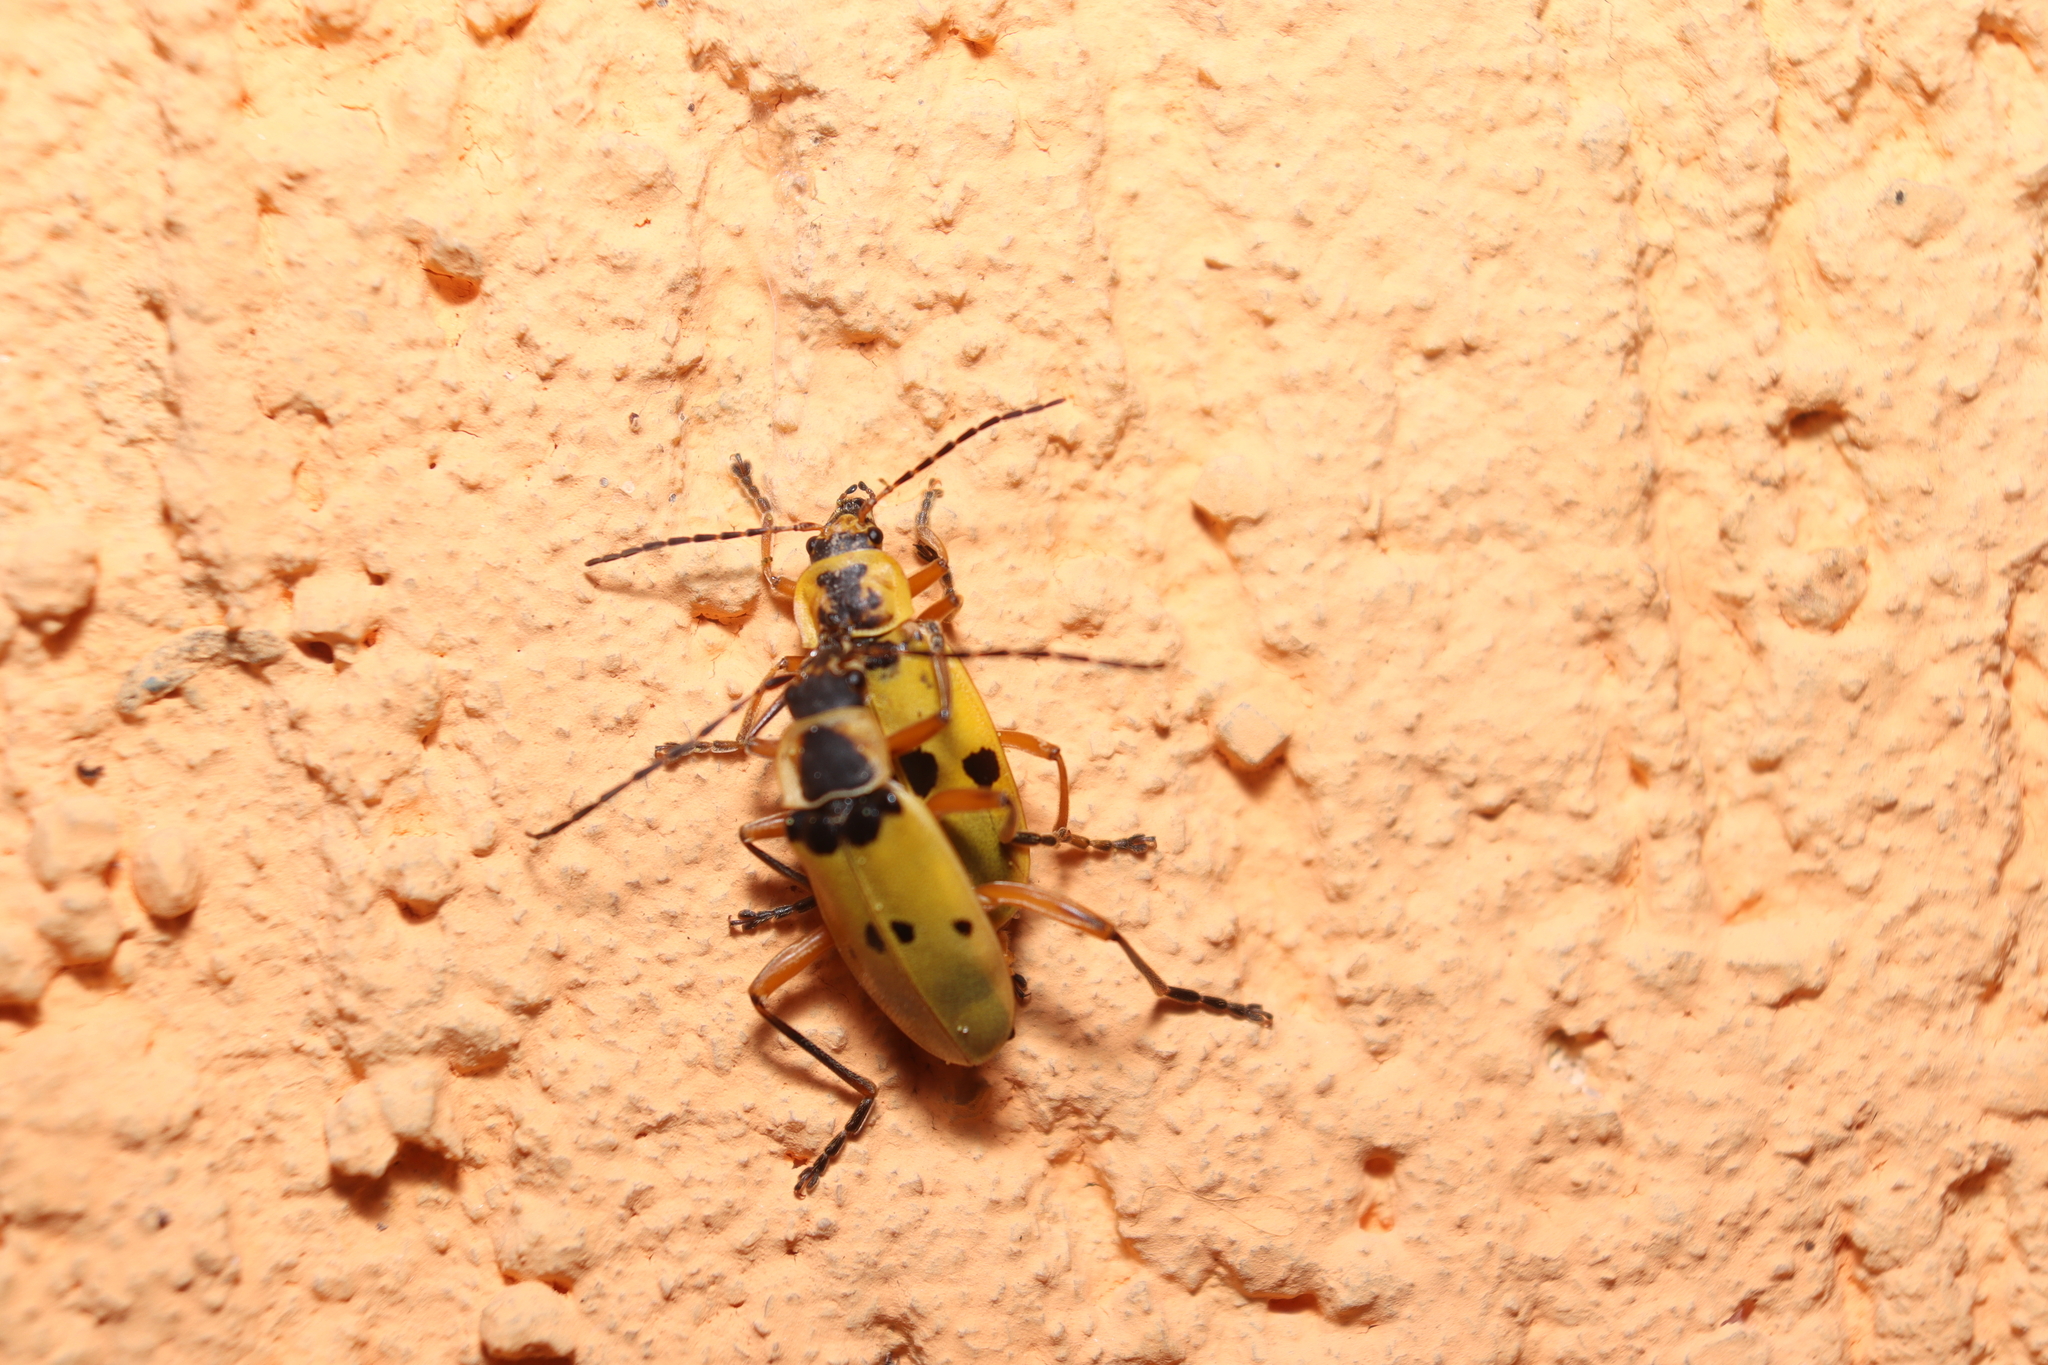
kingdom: Animalia
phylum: Arthropoda
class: Insecta
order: Coleoptera
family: Cantharidae
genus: Chauliognathus
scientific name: Chauliognathus
